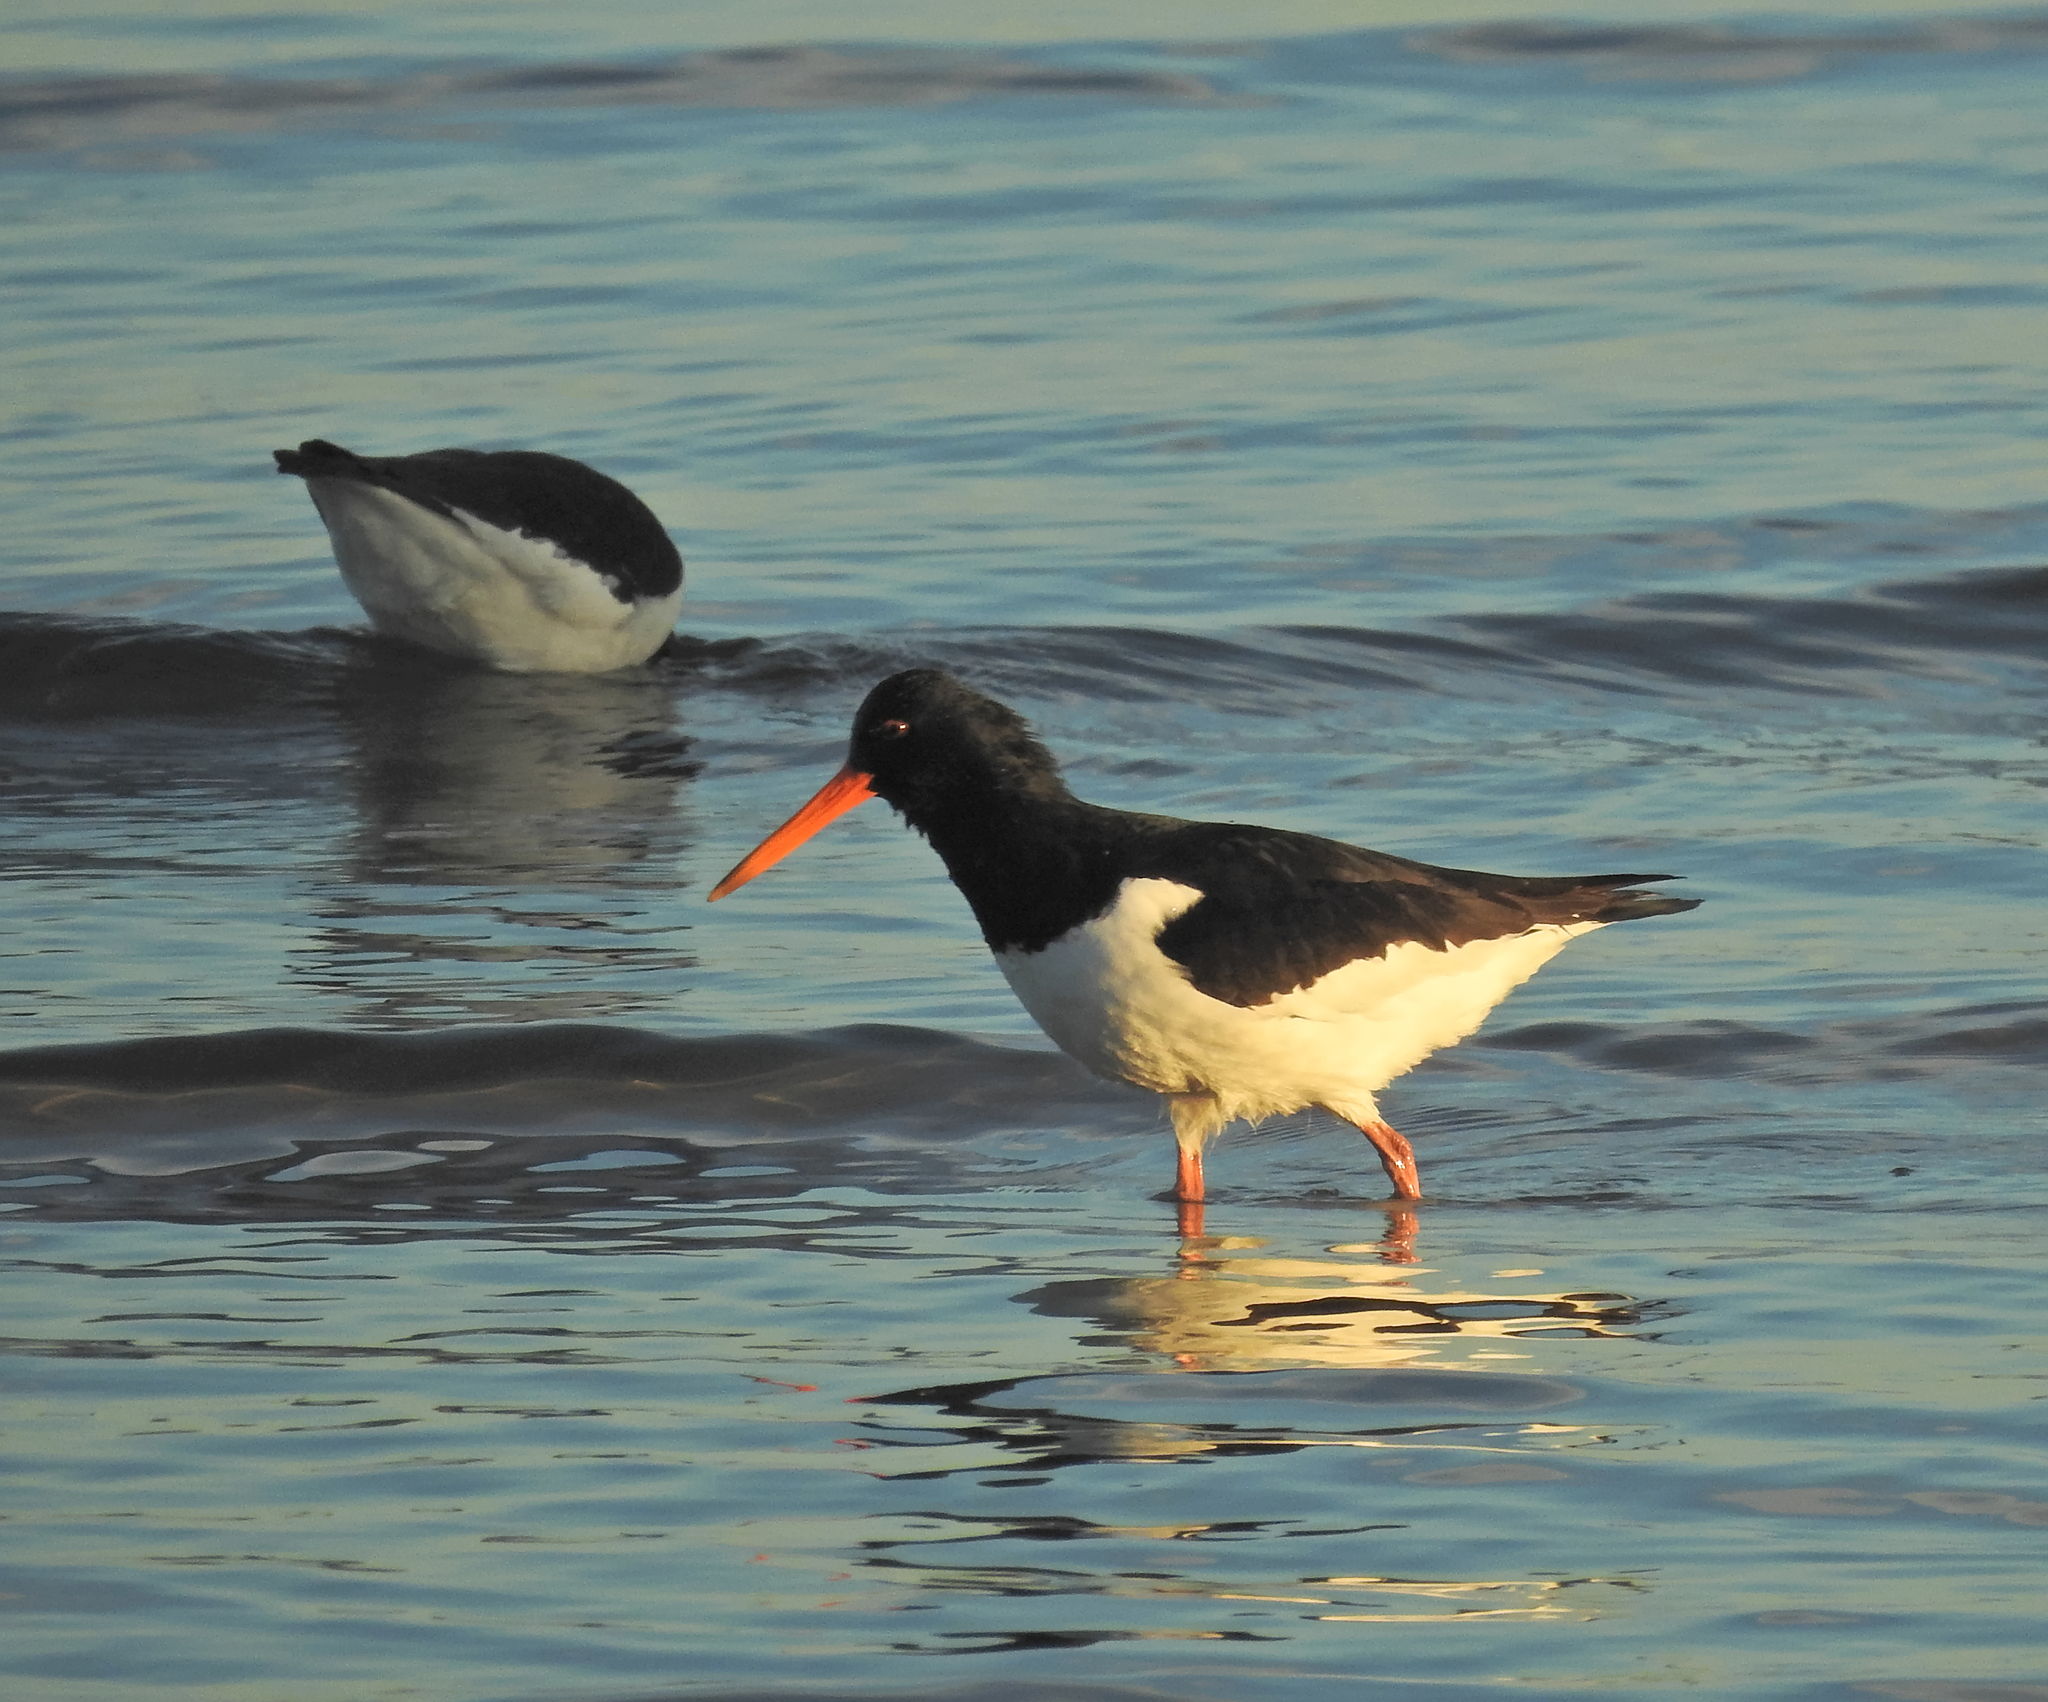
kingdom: Animalia
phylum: Chordata
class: Aves
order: Charadriiformes
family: Haematopodidae
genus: Haematopus
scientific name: Haematopus ostralegus
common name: Eurasian oystercatcher
